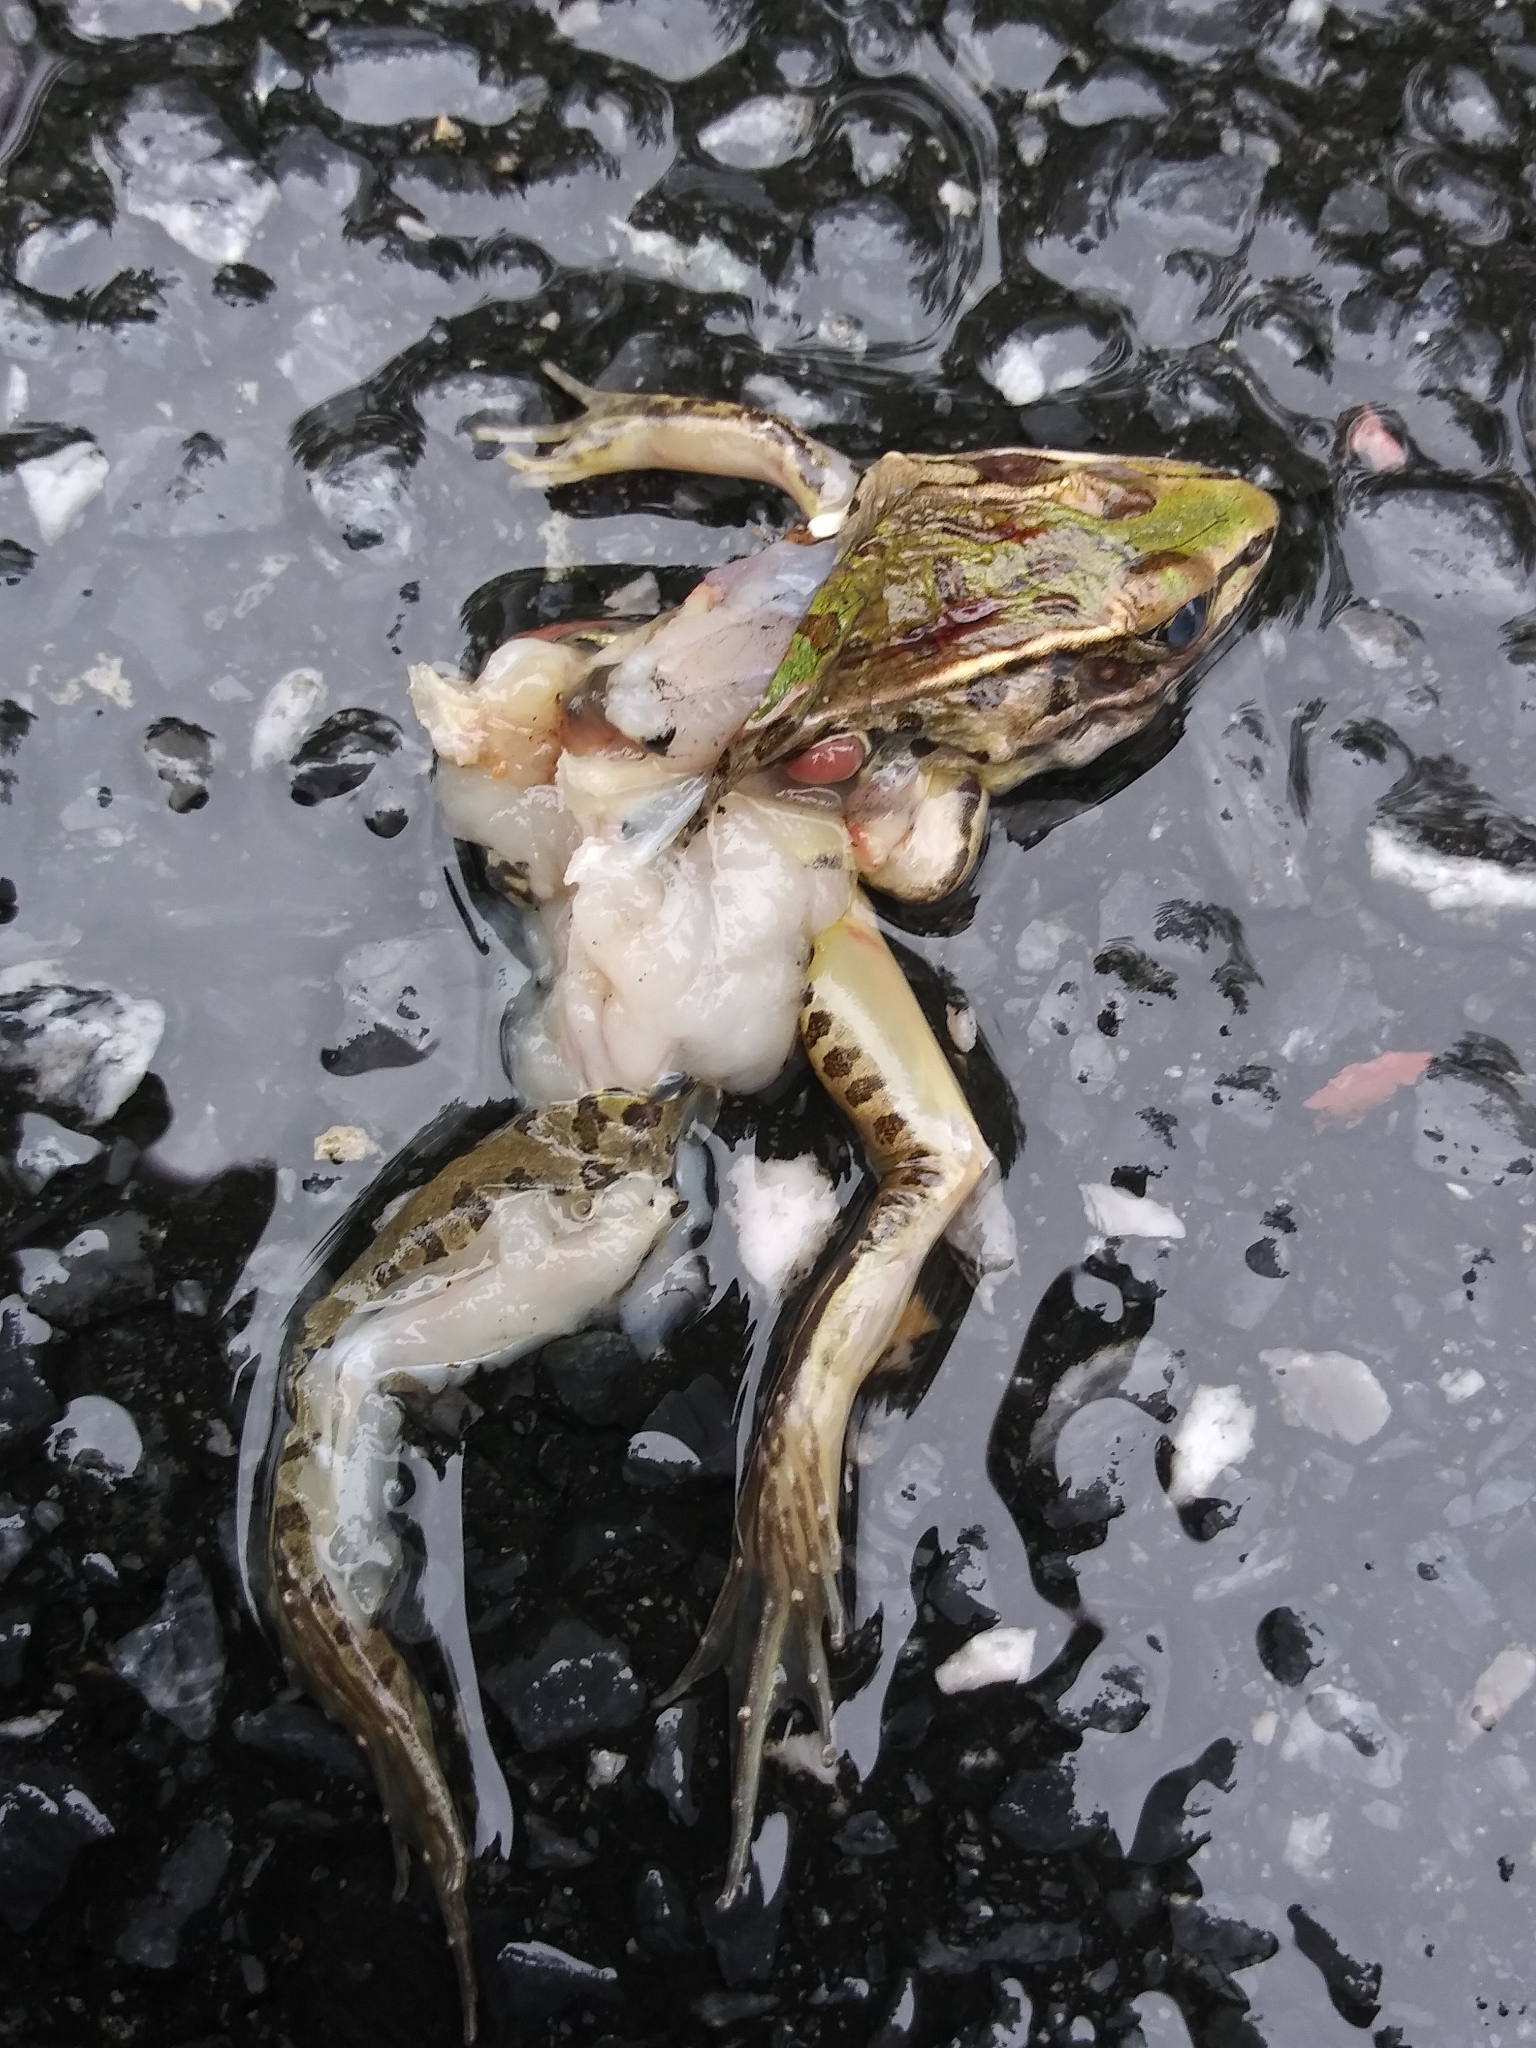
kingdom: Animalia
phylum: Chordata
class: Amphibia
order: Anura
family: Ranidae
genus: Lithobates
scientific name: Lithobates sphenocephalus
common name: Southern leopard frog
